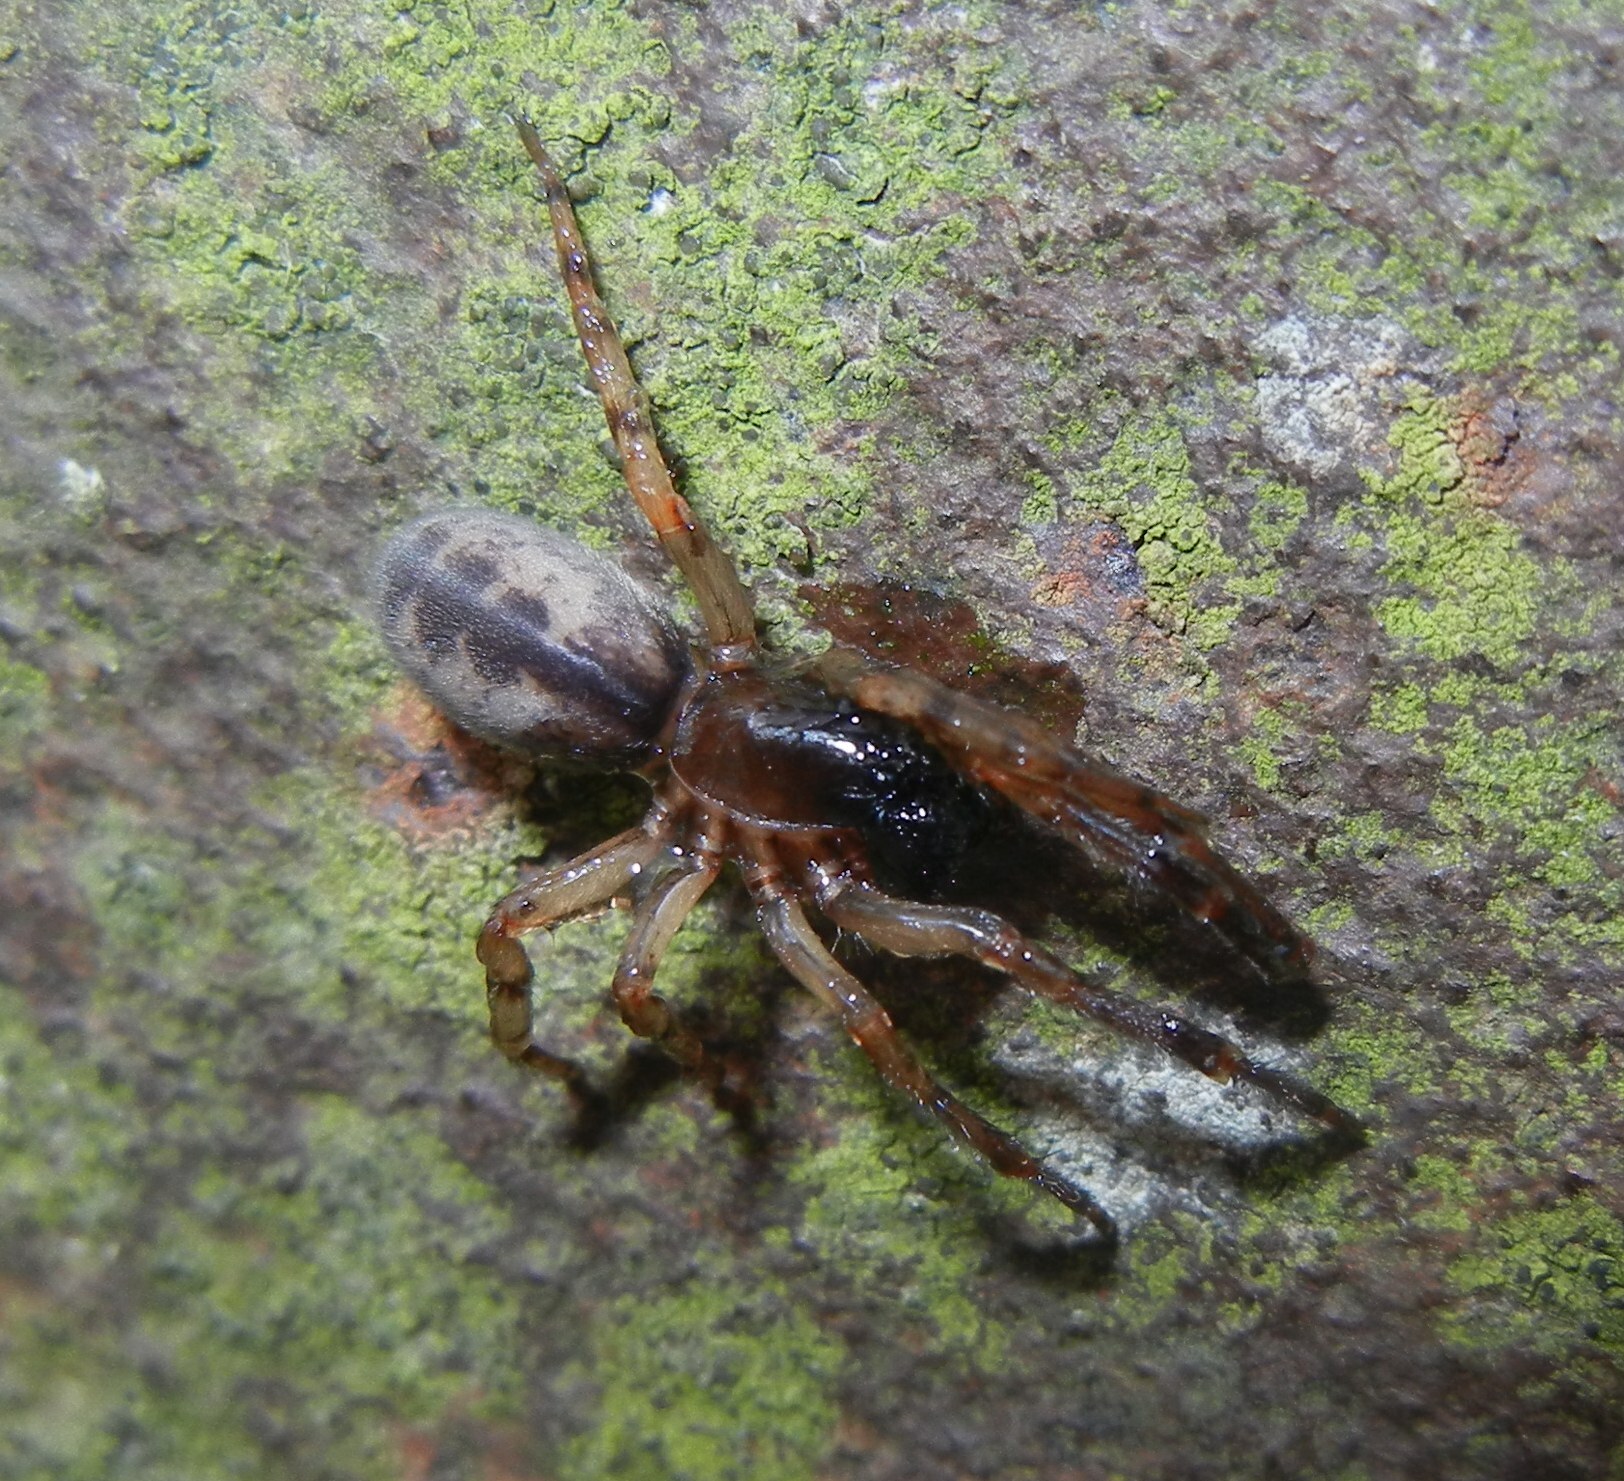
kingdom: Animalia
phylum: Arthropoda
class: Arachnida
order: Araneae
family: Segestriidae
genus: Segestria
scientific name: Segestria senoculata
